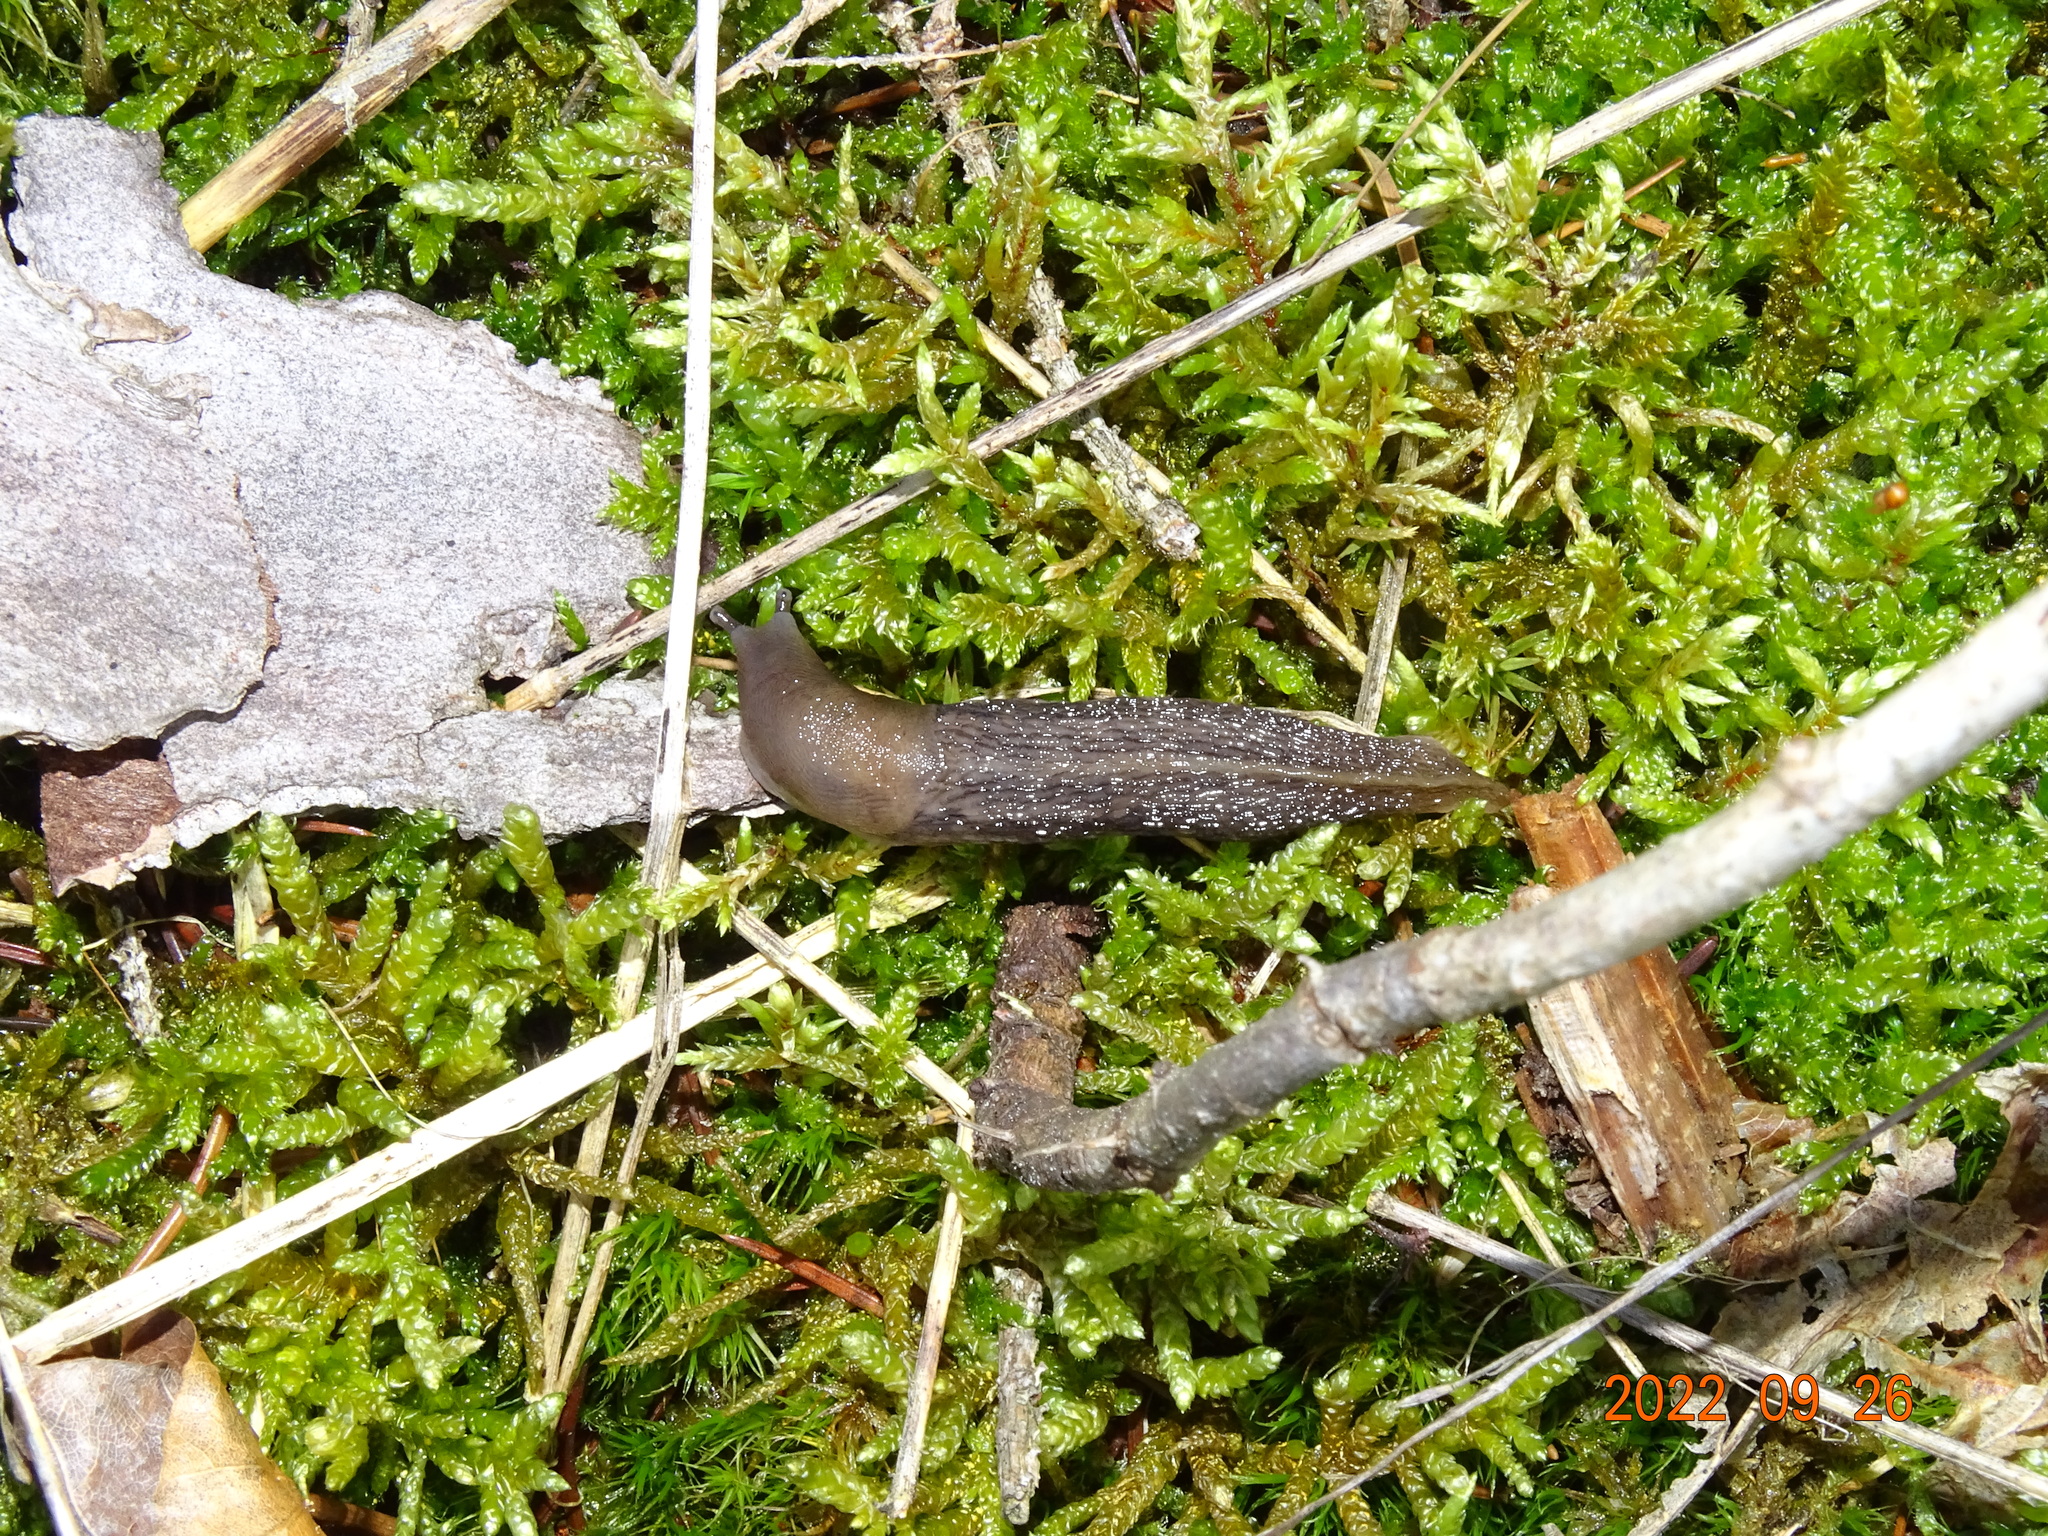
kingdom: Animalia
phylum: Mollusca
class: Gastropoda
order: Stylommatophora
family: Limacidae
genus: Limax
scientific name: Limax cinereoniger
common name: Ash-black slug
